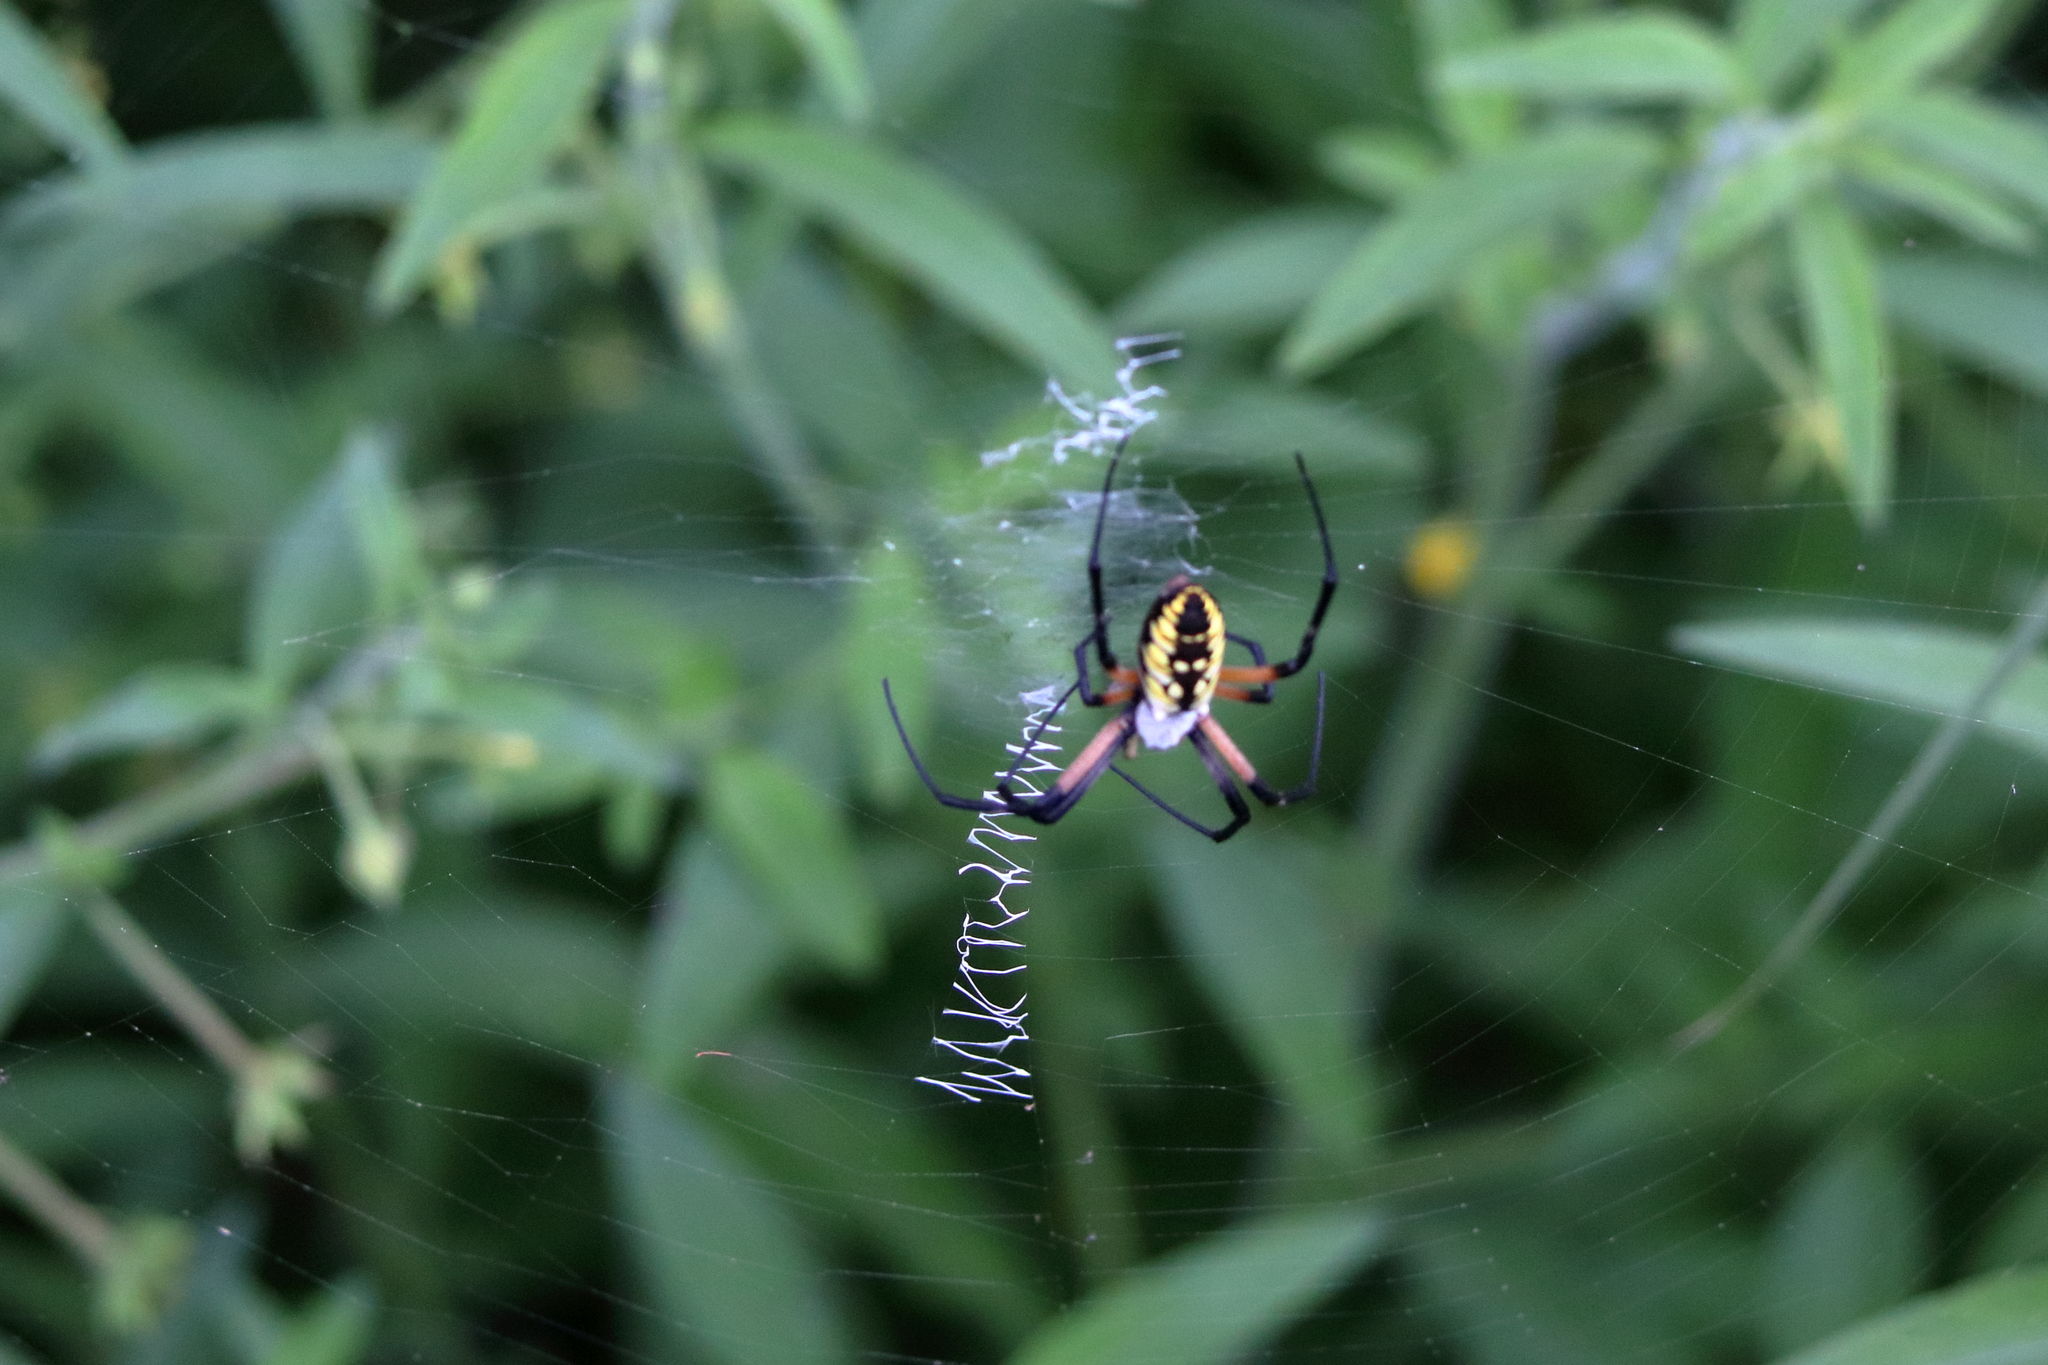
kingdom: Animalia
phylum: Arthropoda
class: Arachnida
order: Araneae
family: Araneidae
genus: Argiope
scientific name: Argiope aurantia
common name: Orb weavers
